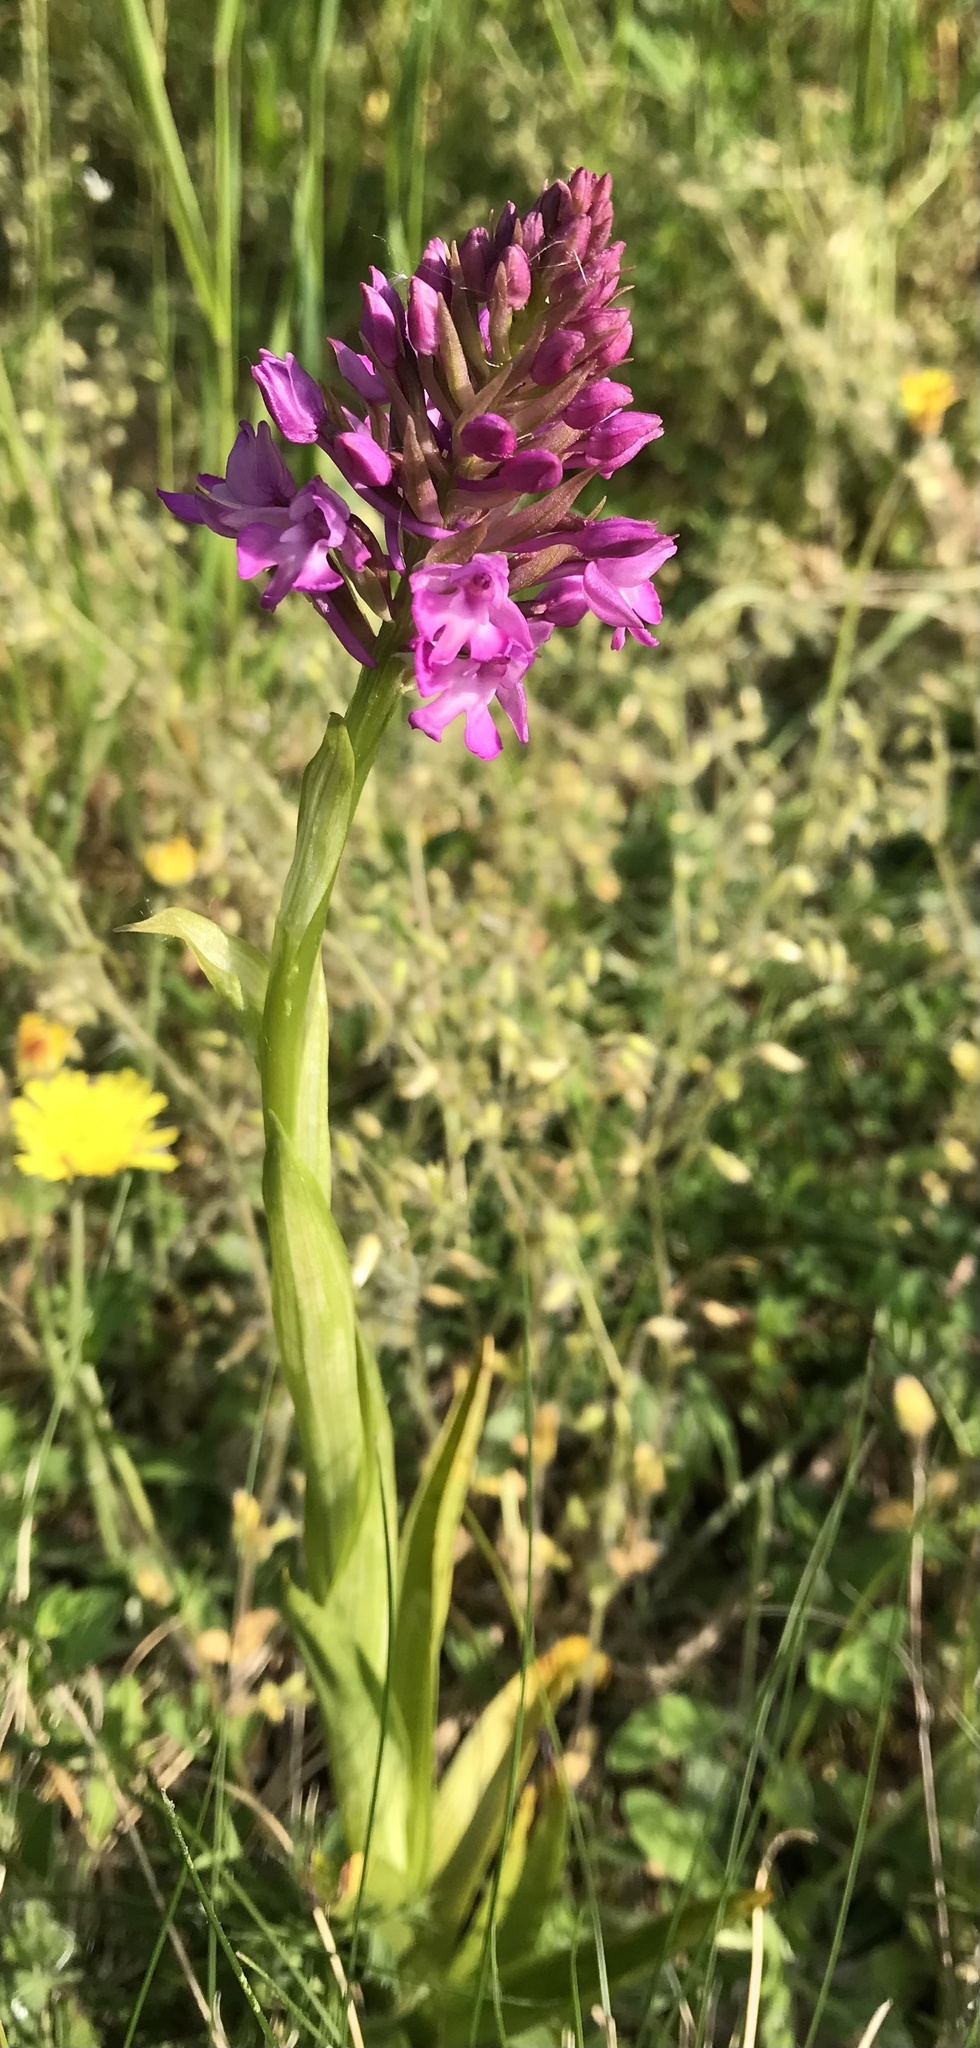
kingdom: Plantae
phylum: Tracheophyta
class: Liliopsida
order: Asparagales
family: Orchidaceae
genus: Anacamptis
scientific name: Anacamptis pyramidalis
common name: Pyramidal orchid
